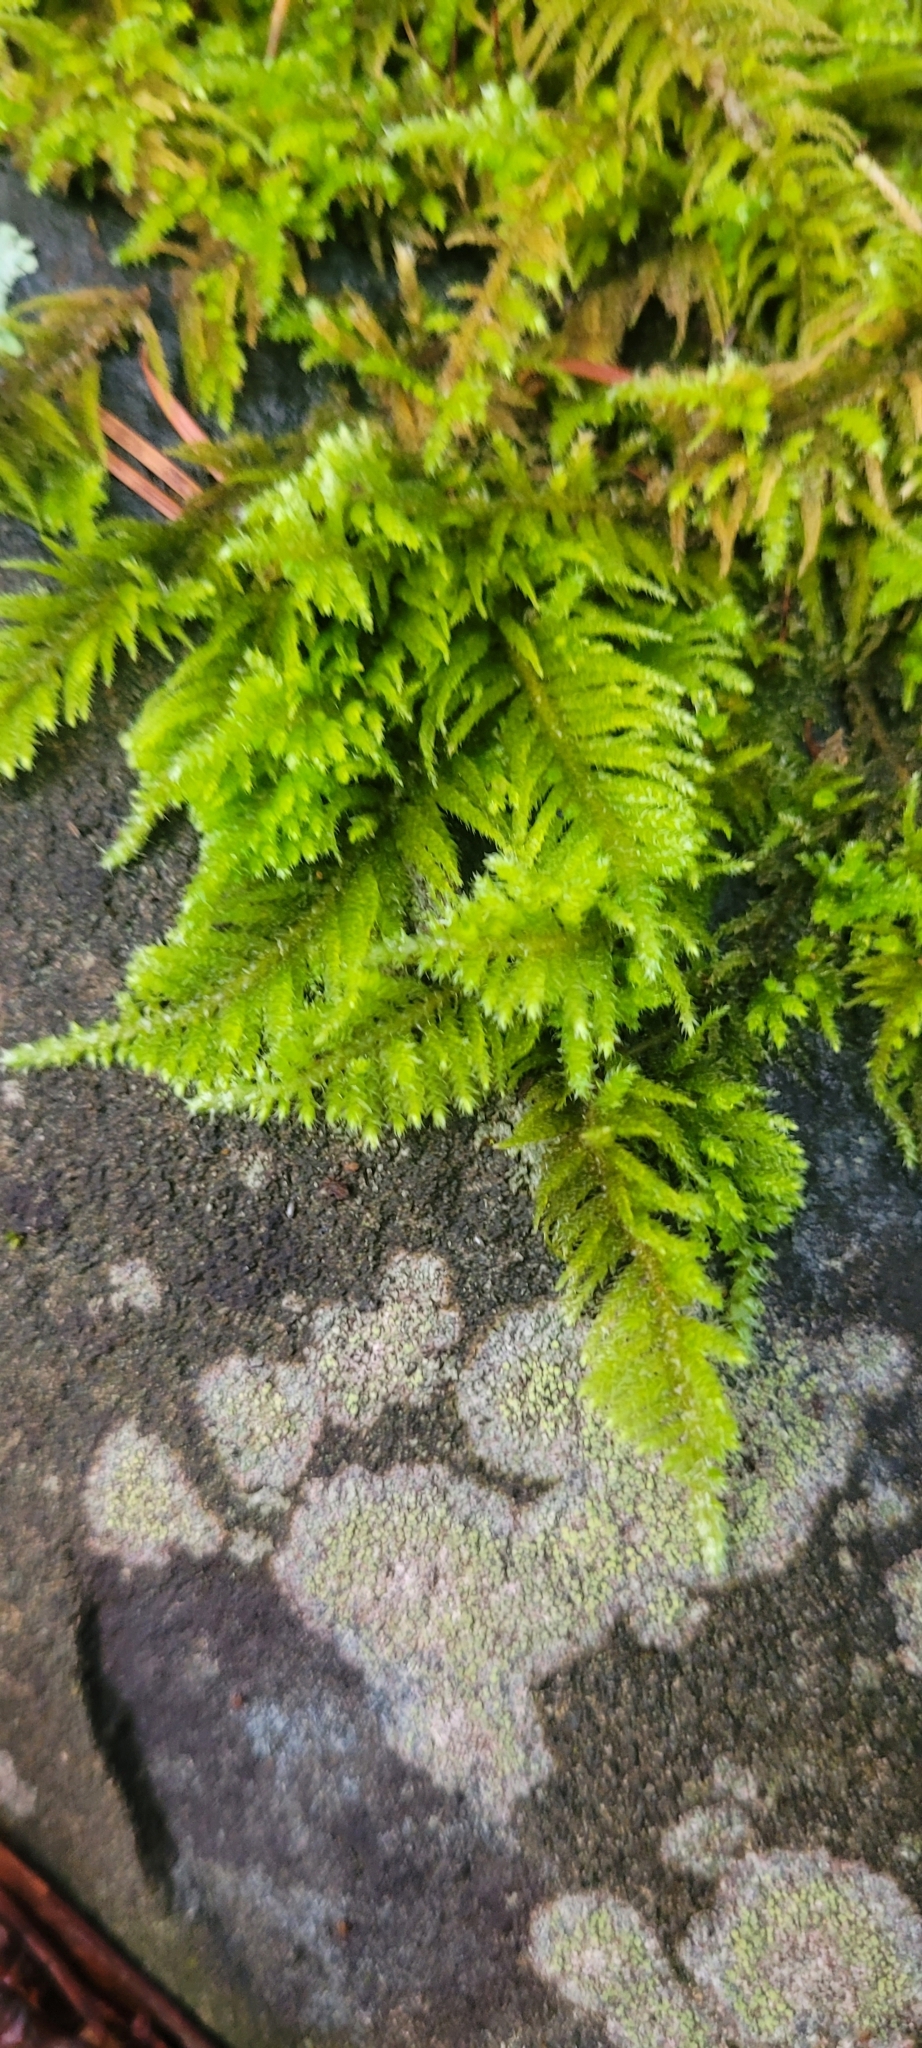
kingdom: Plantae
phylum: Bryophyta
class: Bryopsida
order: Hypnales
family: Brachytheciaceae
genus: Kindbergia
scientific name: Kindbergia oregana
